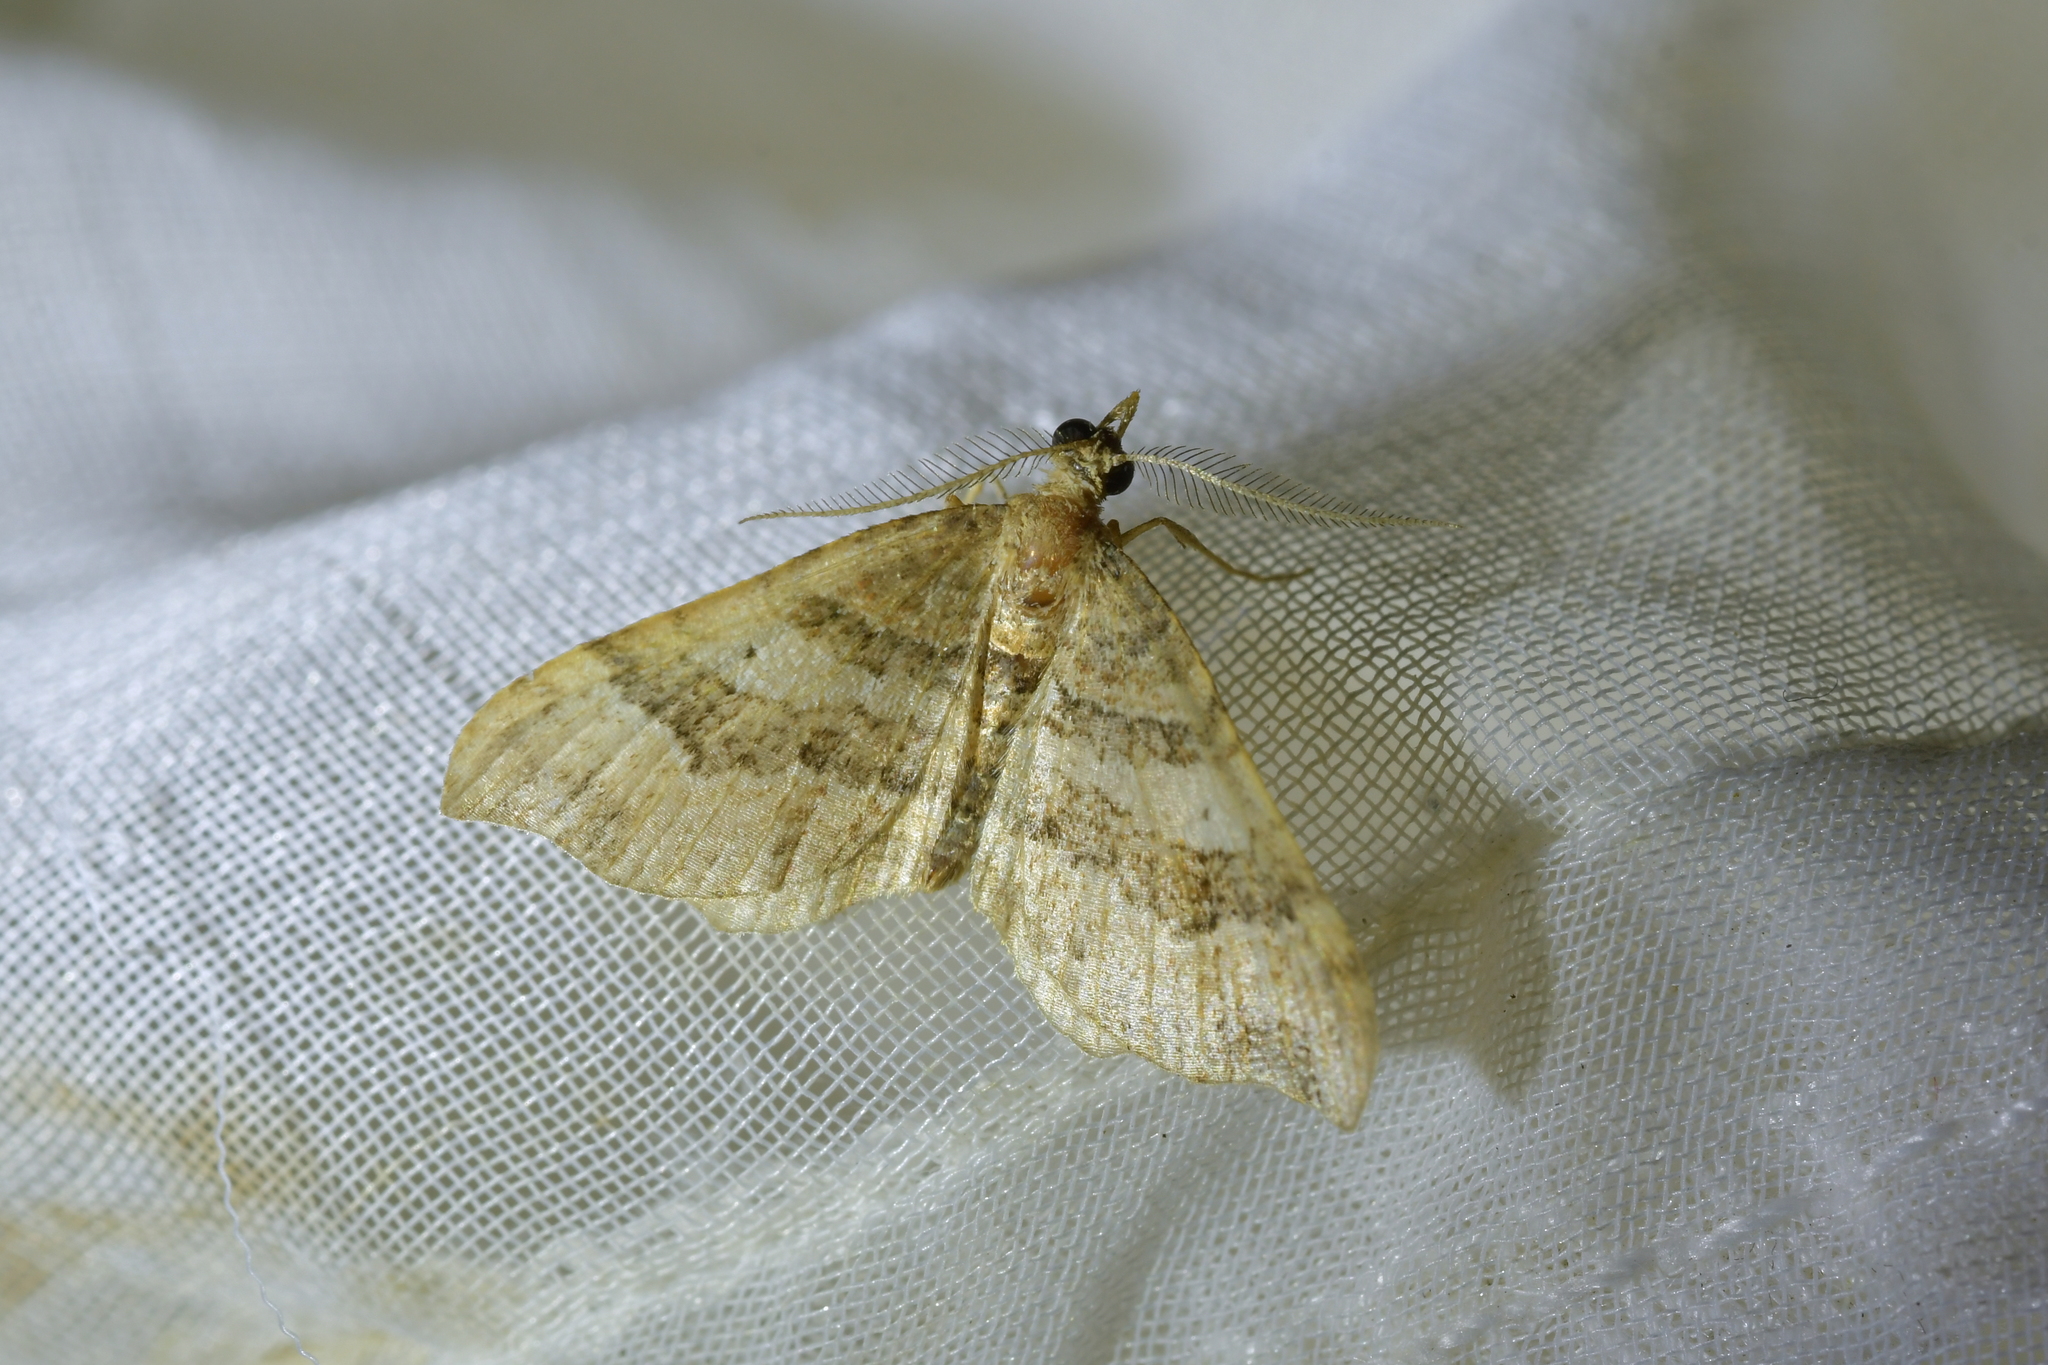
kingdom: Animalia
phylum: Arthropoda
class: Insecta
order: Lepidoptera
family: Geometridae
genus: Homodotis
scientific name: Homodotis megaspilata
